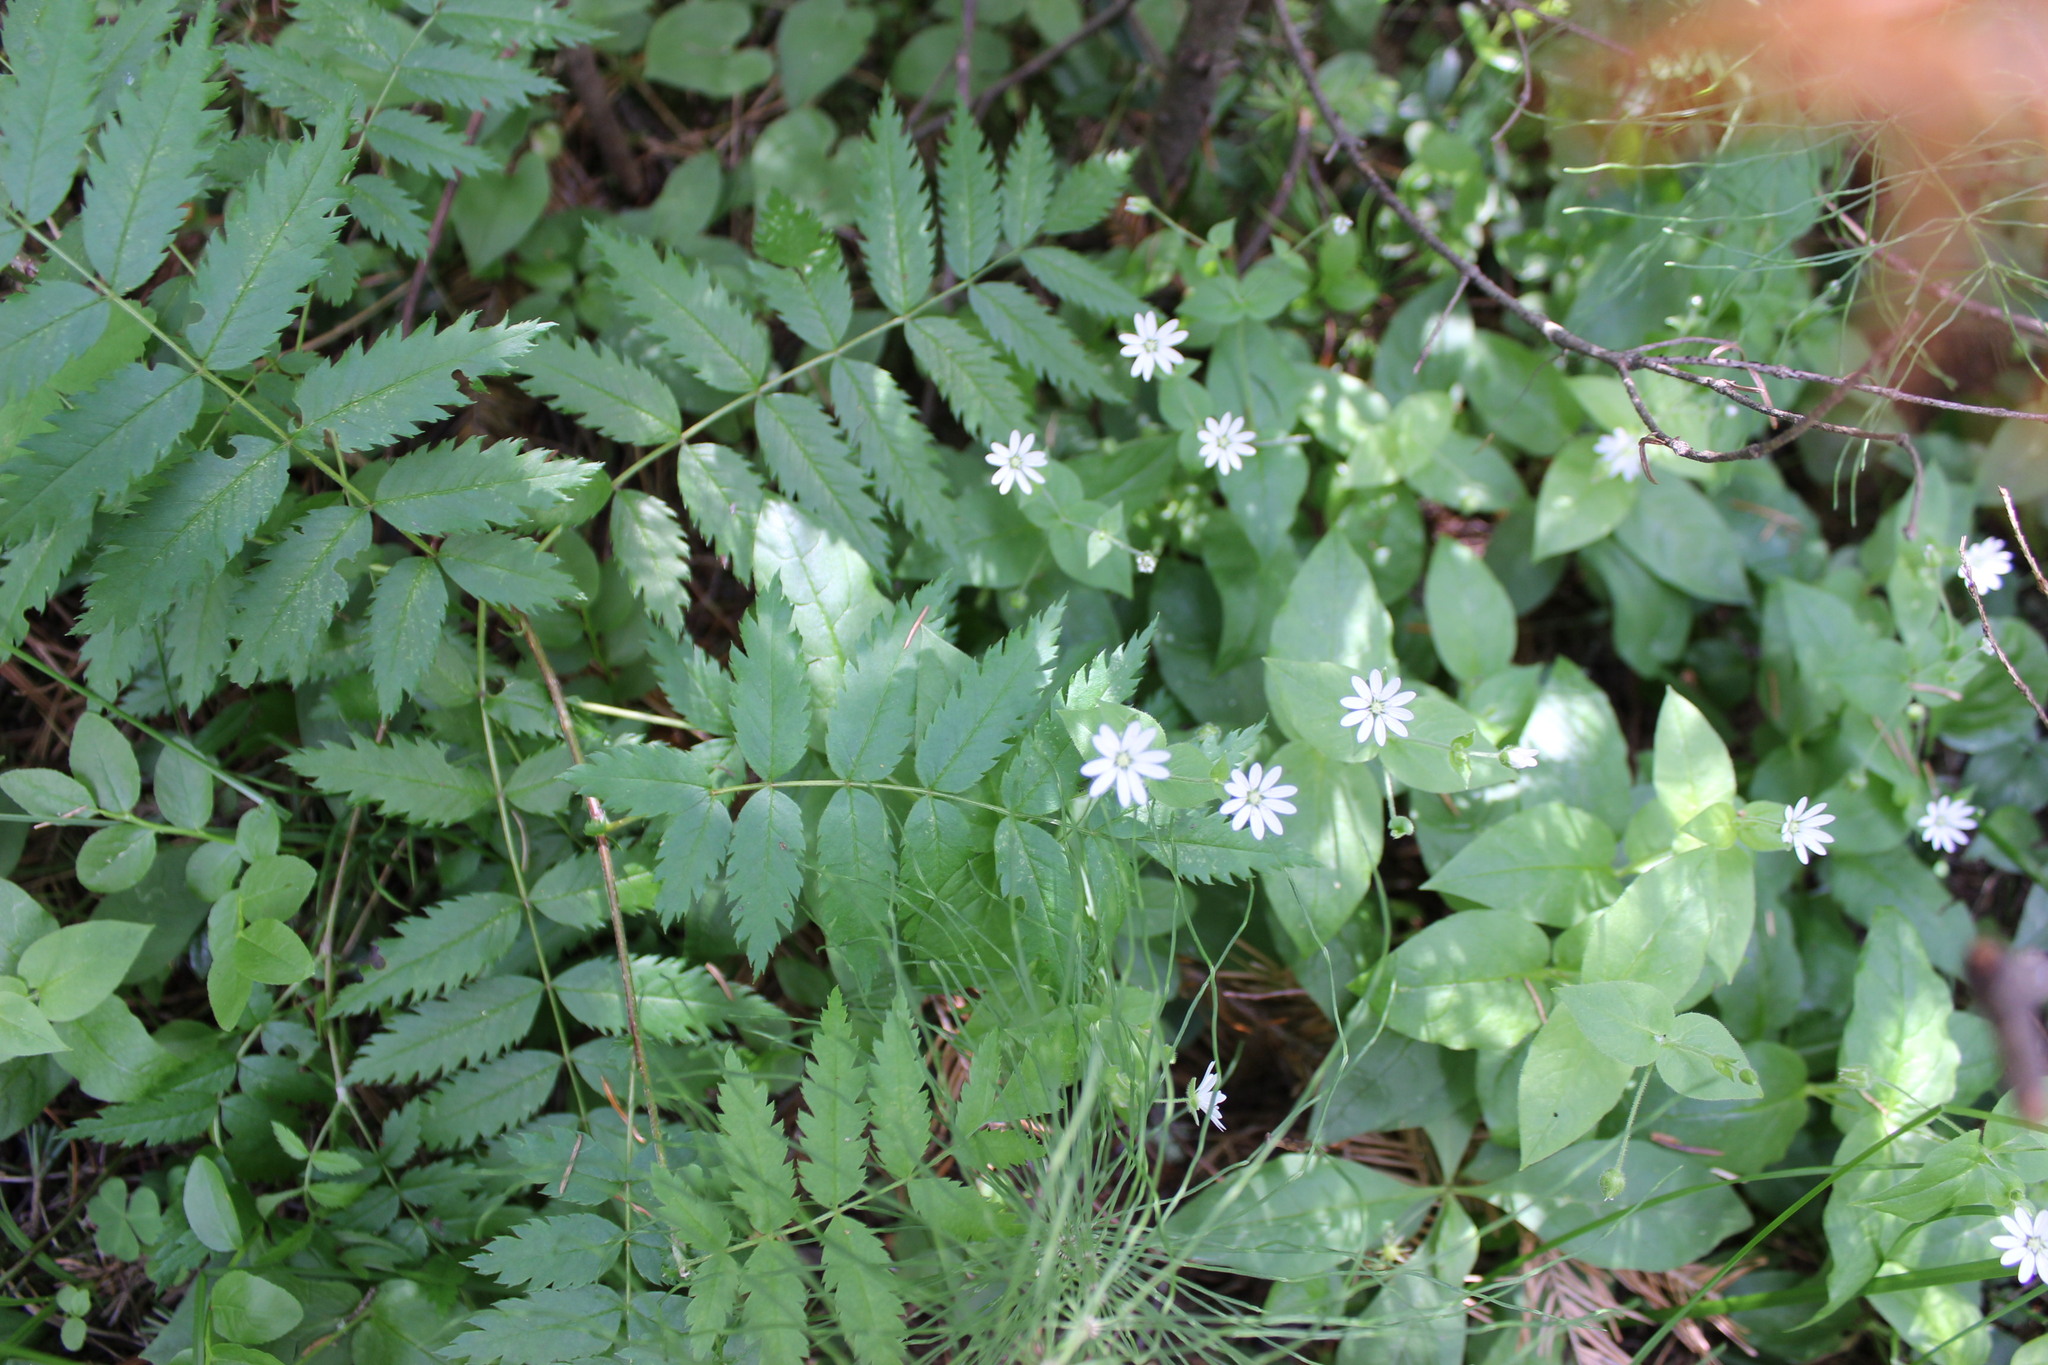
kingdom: Plantae
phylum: Tracheophyta
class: Magnoliopsida
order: Caryophyllales
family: Caryophyllaceae
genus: Stellaria
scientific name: Stellaria bungeana
